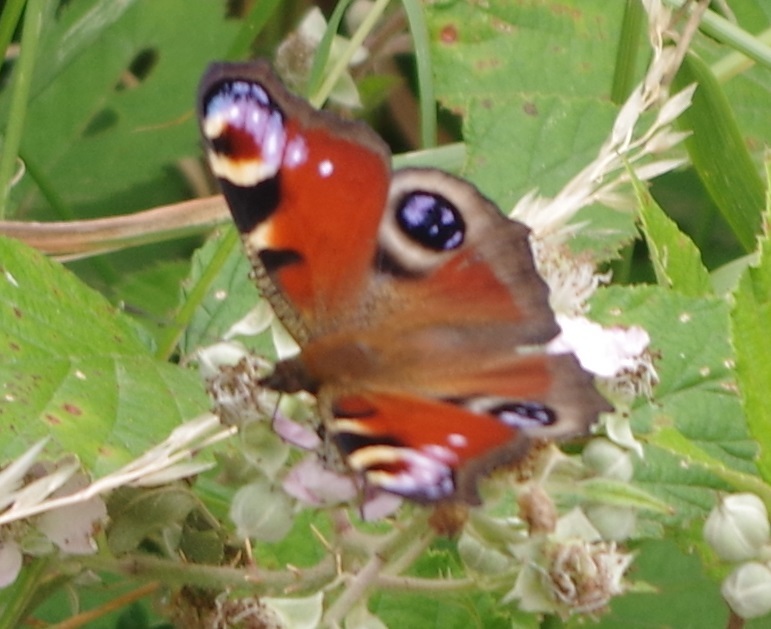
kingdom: Animalia
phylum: Arthropoda
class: Insecta
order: Lepidoptera
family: Nymphalidae
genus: Aglais
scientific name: Aglais io
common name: Peacock
